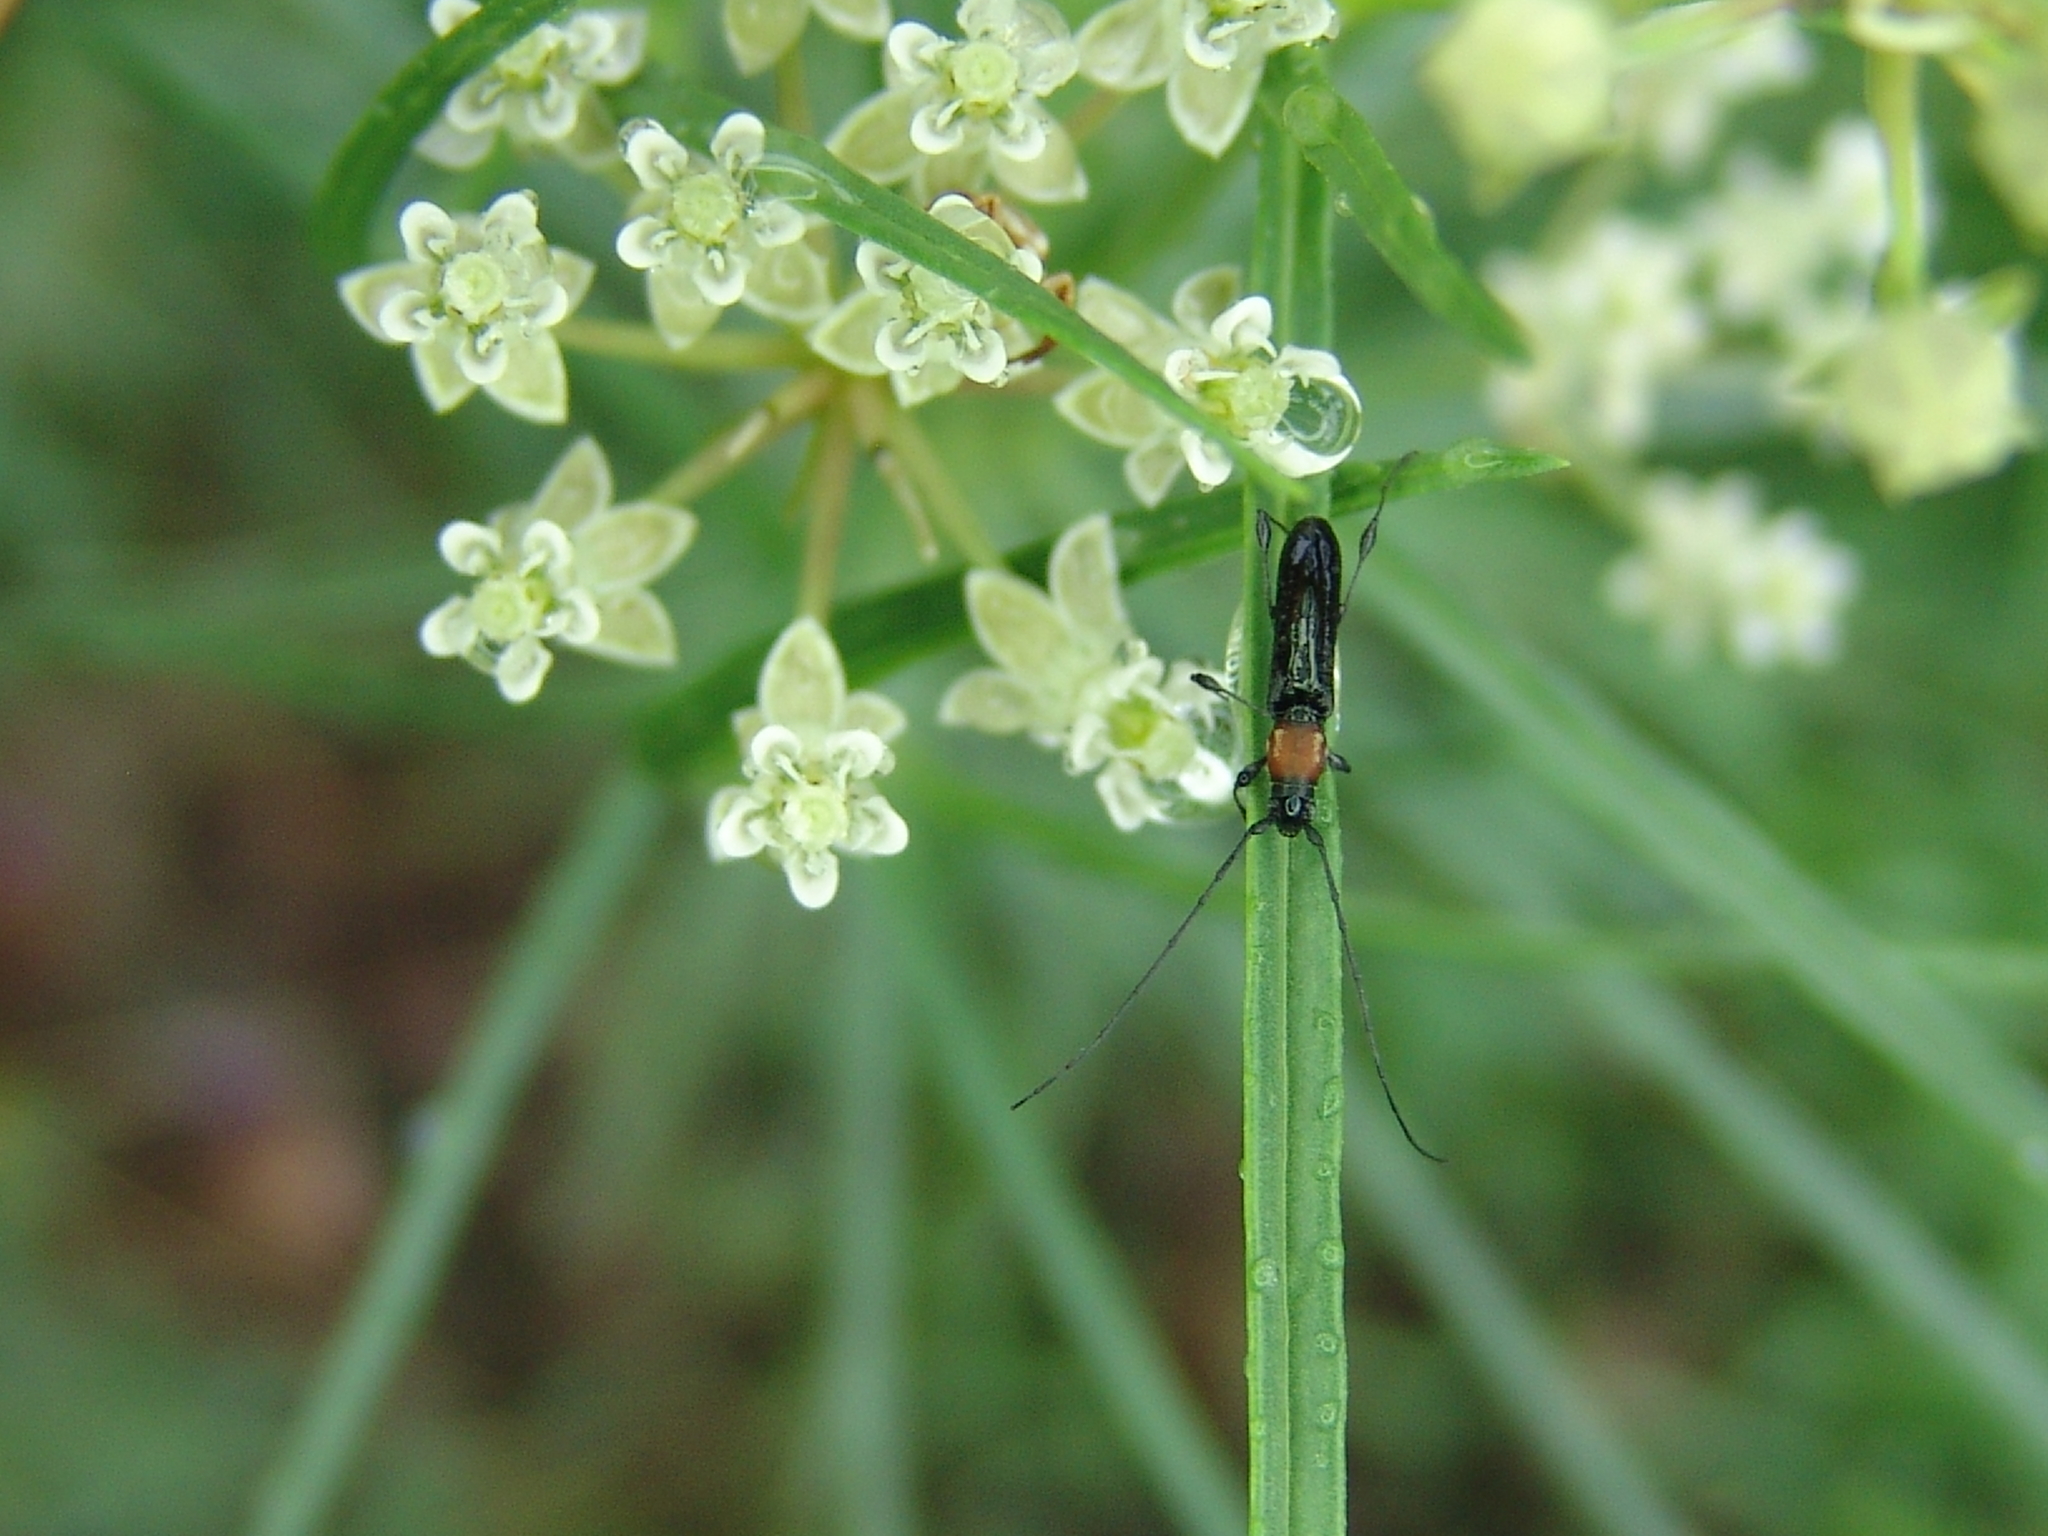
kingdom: Animalia
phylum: Arthropoda
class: Insecta
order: Coleoptera
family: Cerambycidae
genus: Rhopalophora
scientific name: Rhopalophora meeskei
